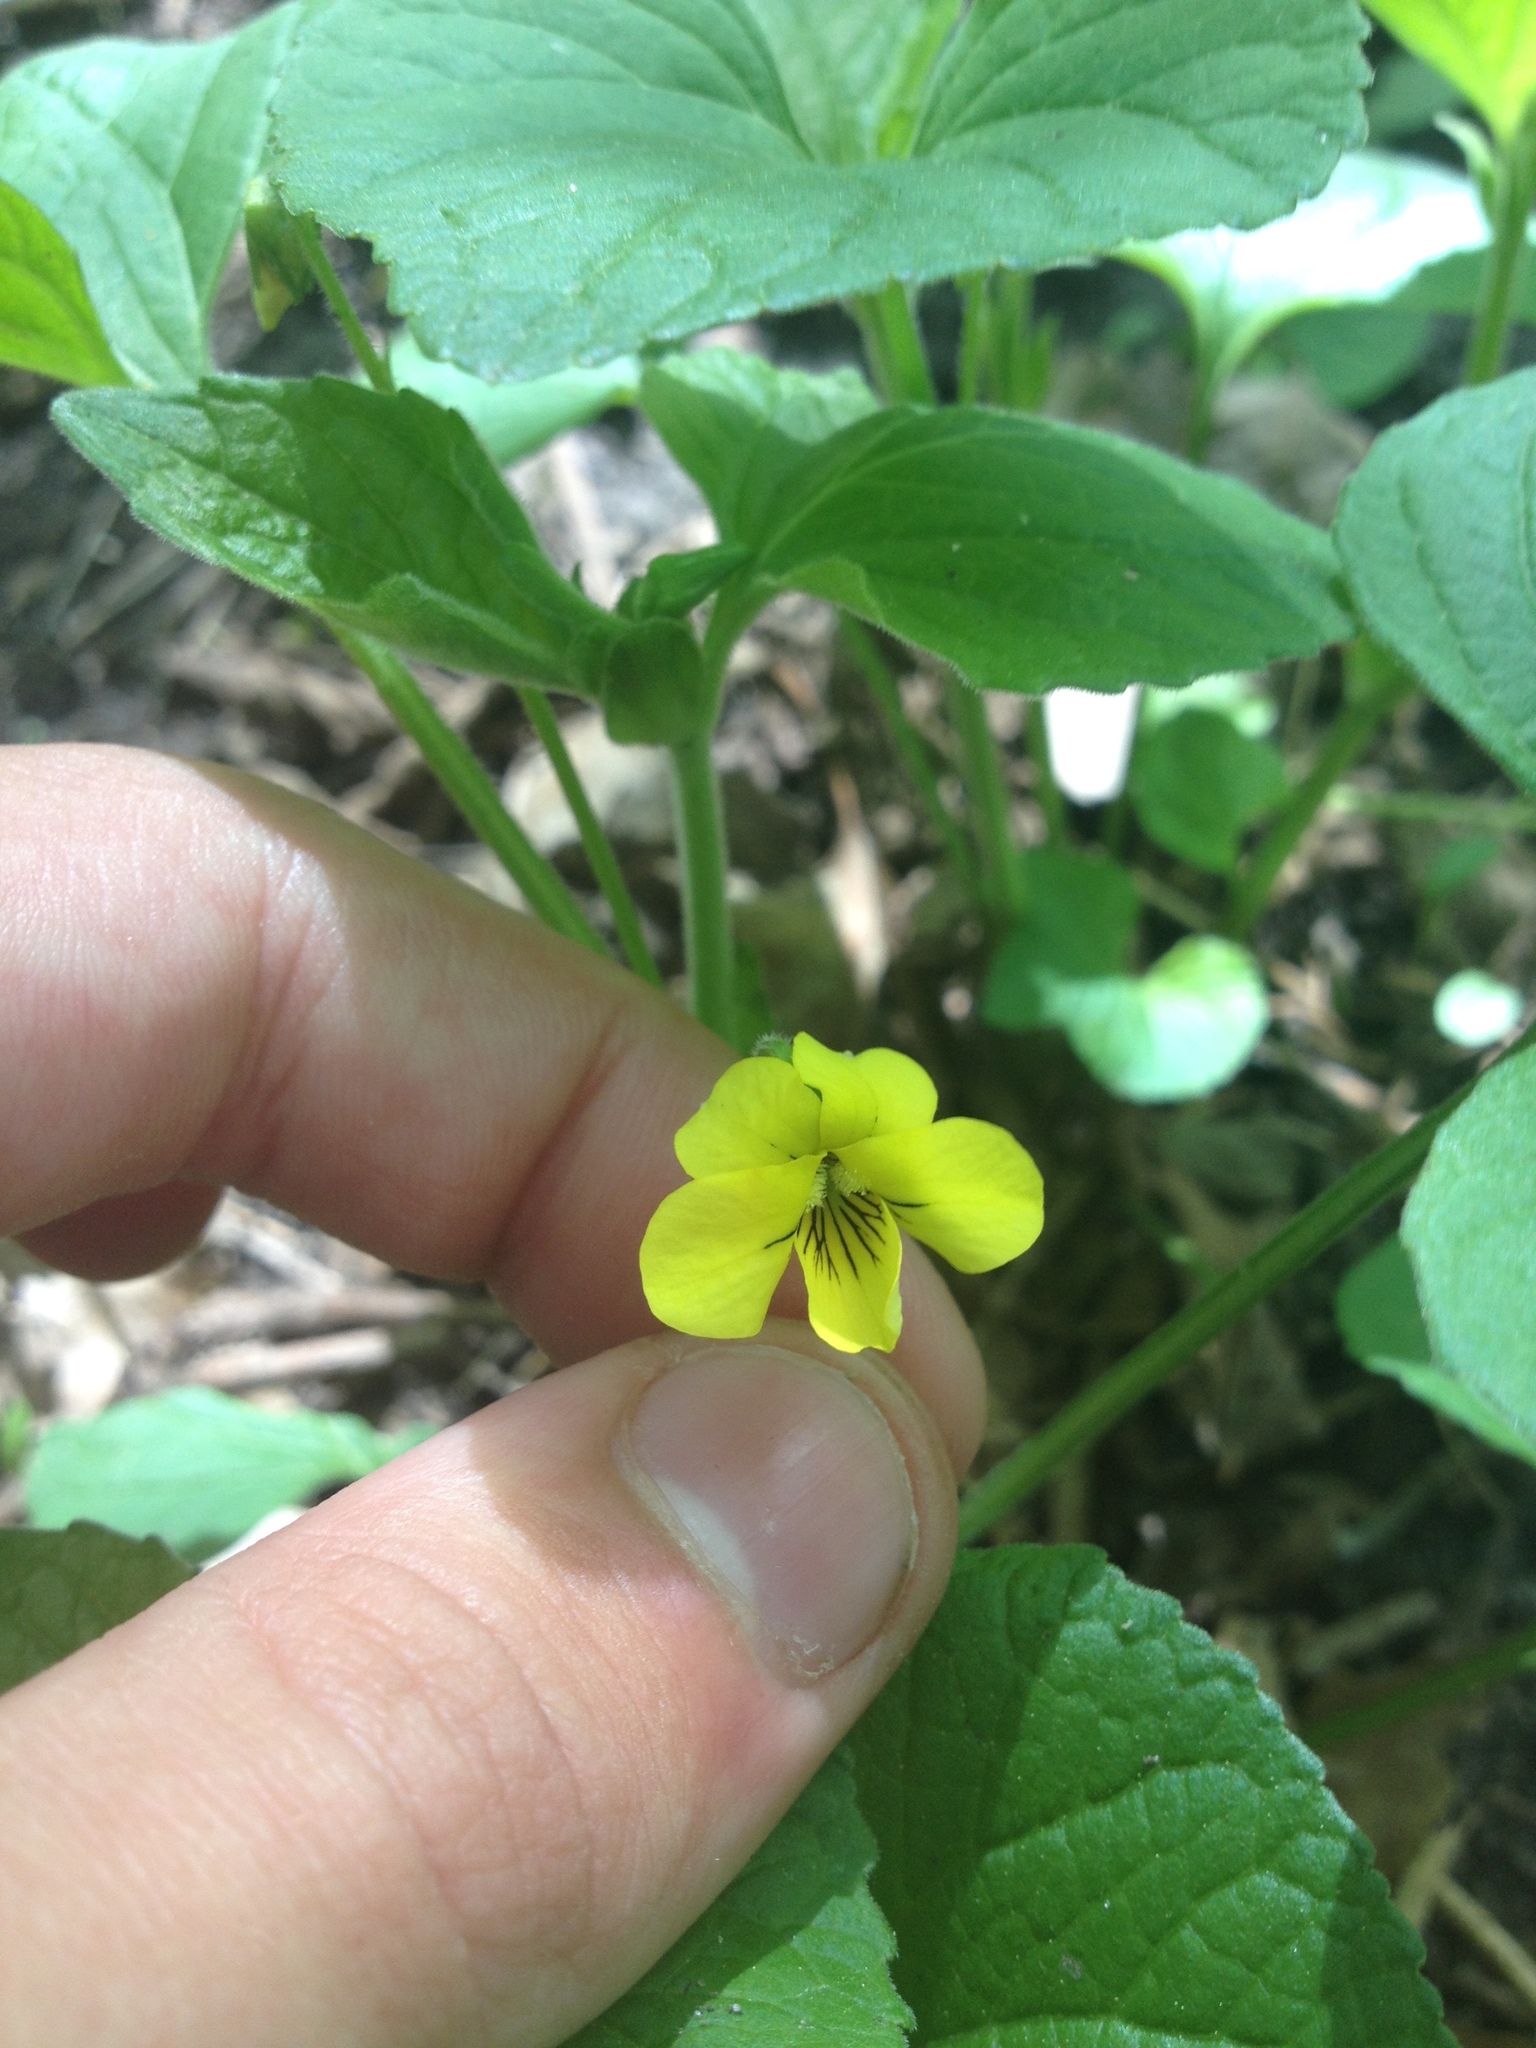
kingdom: Plantae
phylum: Tracheophyta
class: Magnoliopsida
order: Malpighiales
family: Violaceae
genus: Viola
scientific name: Viola eriocarpa
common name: Smooth yellow violet
